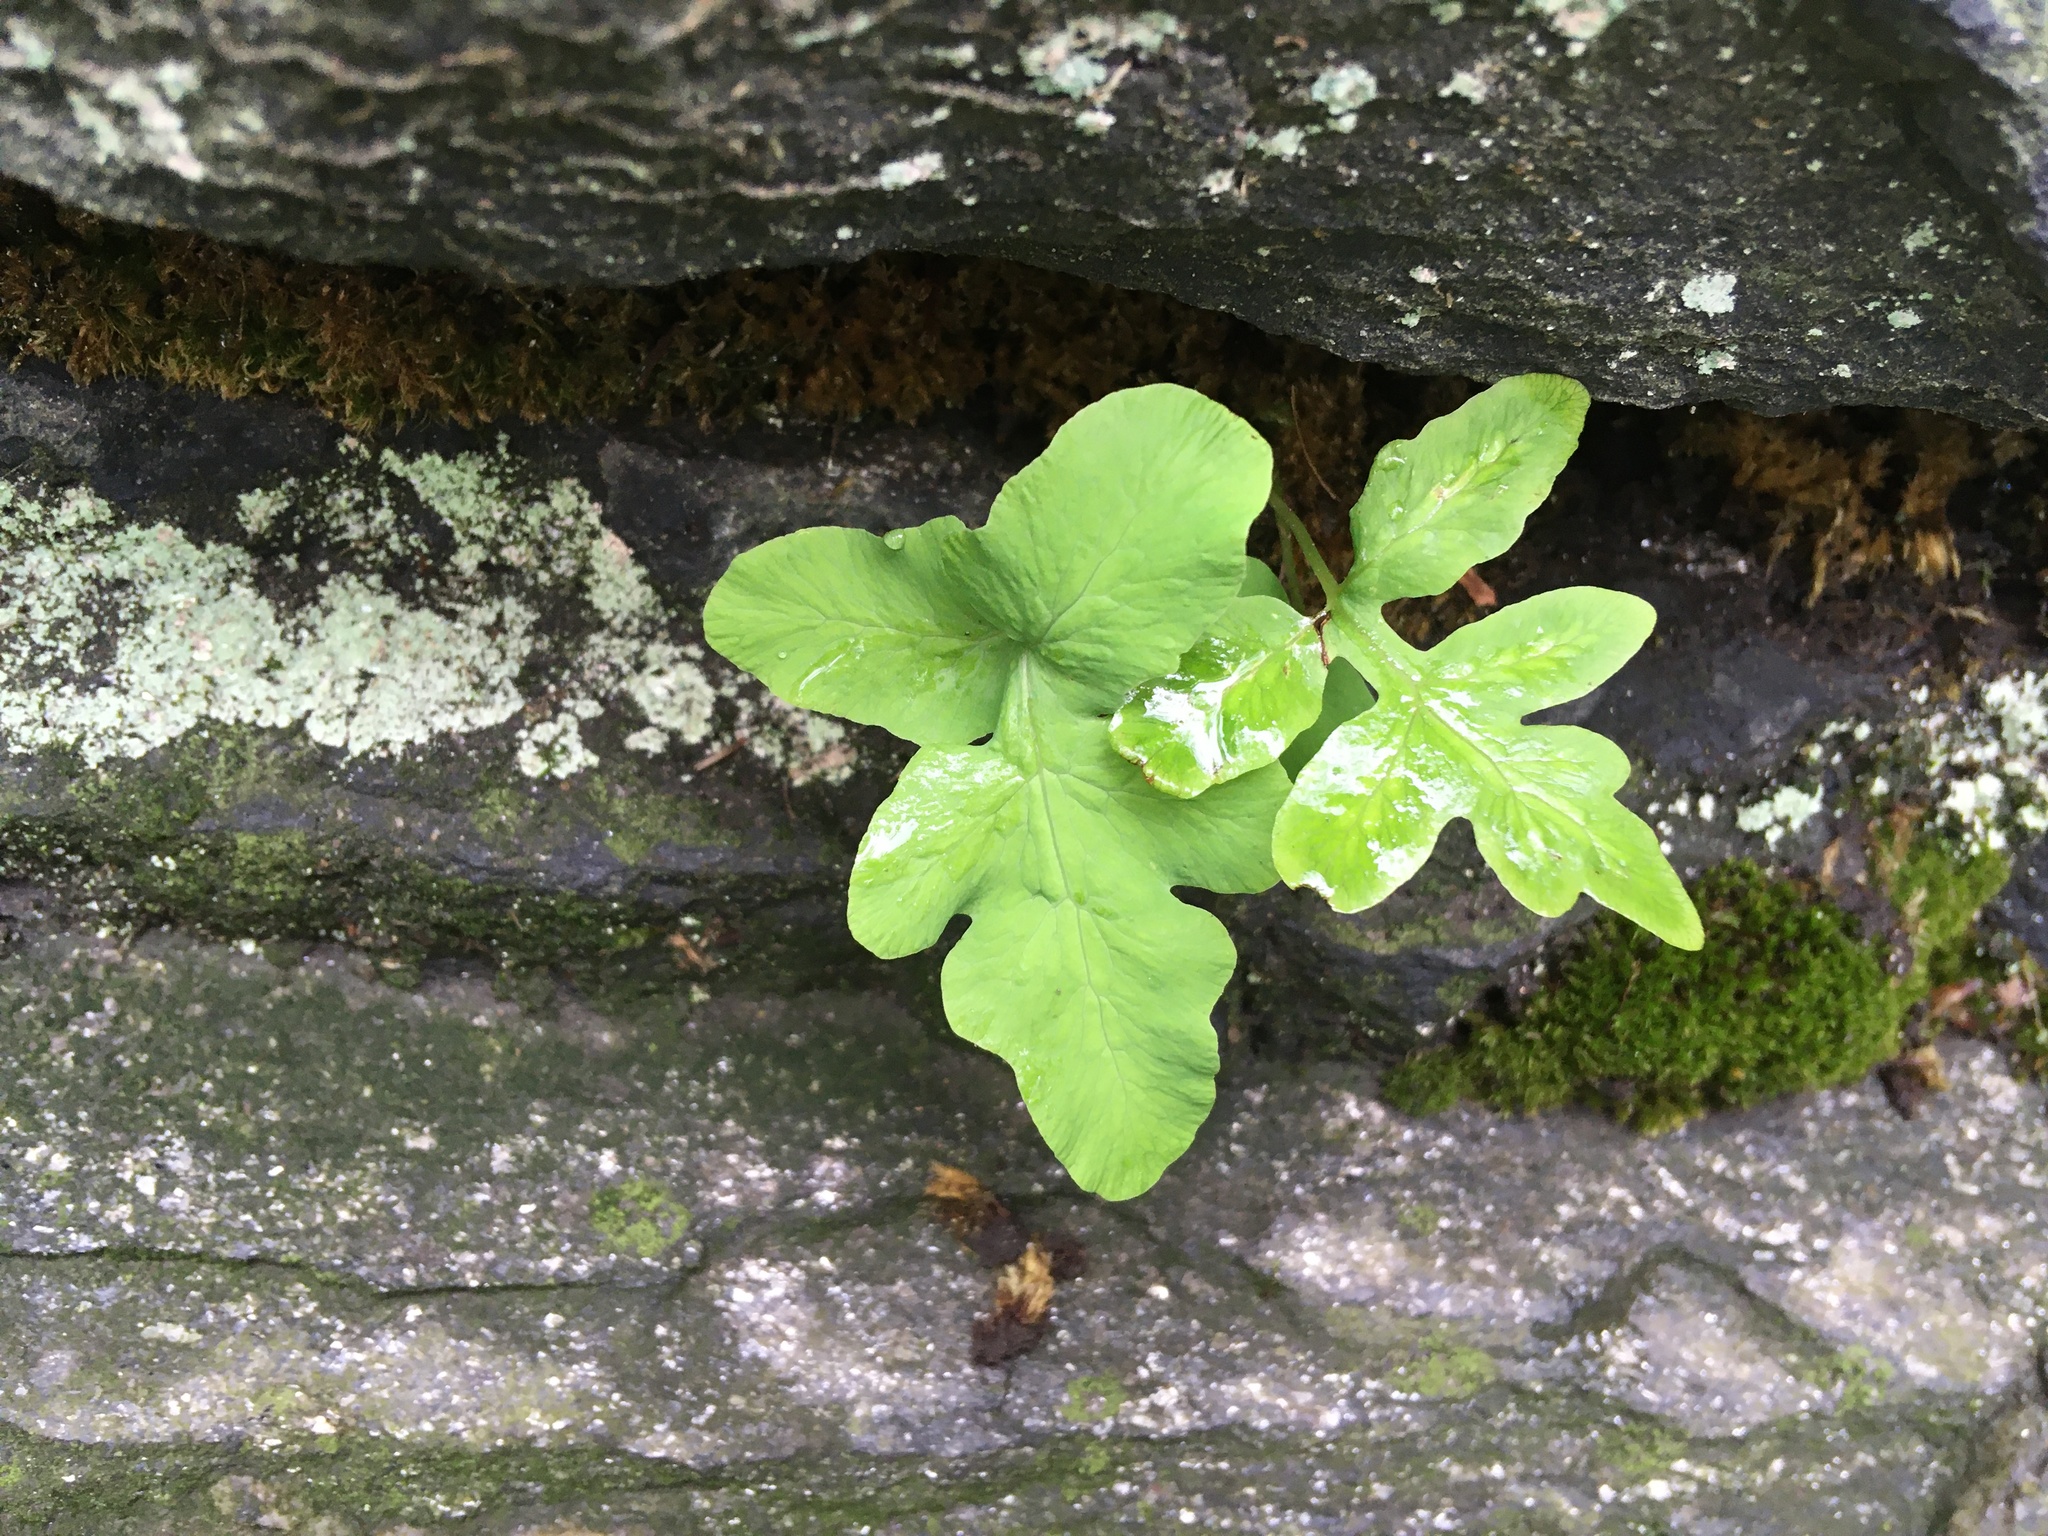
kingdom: Plantae
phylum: Tracheophyta
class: Polypodiopsida
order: Polypodiales
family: Onocleaceae
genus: Onoclea
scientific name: Onoclea sensibilis
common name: Sensitive fern
